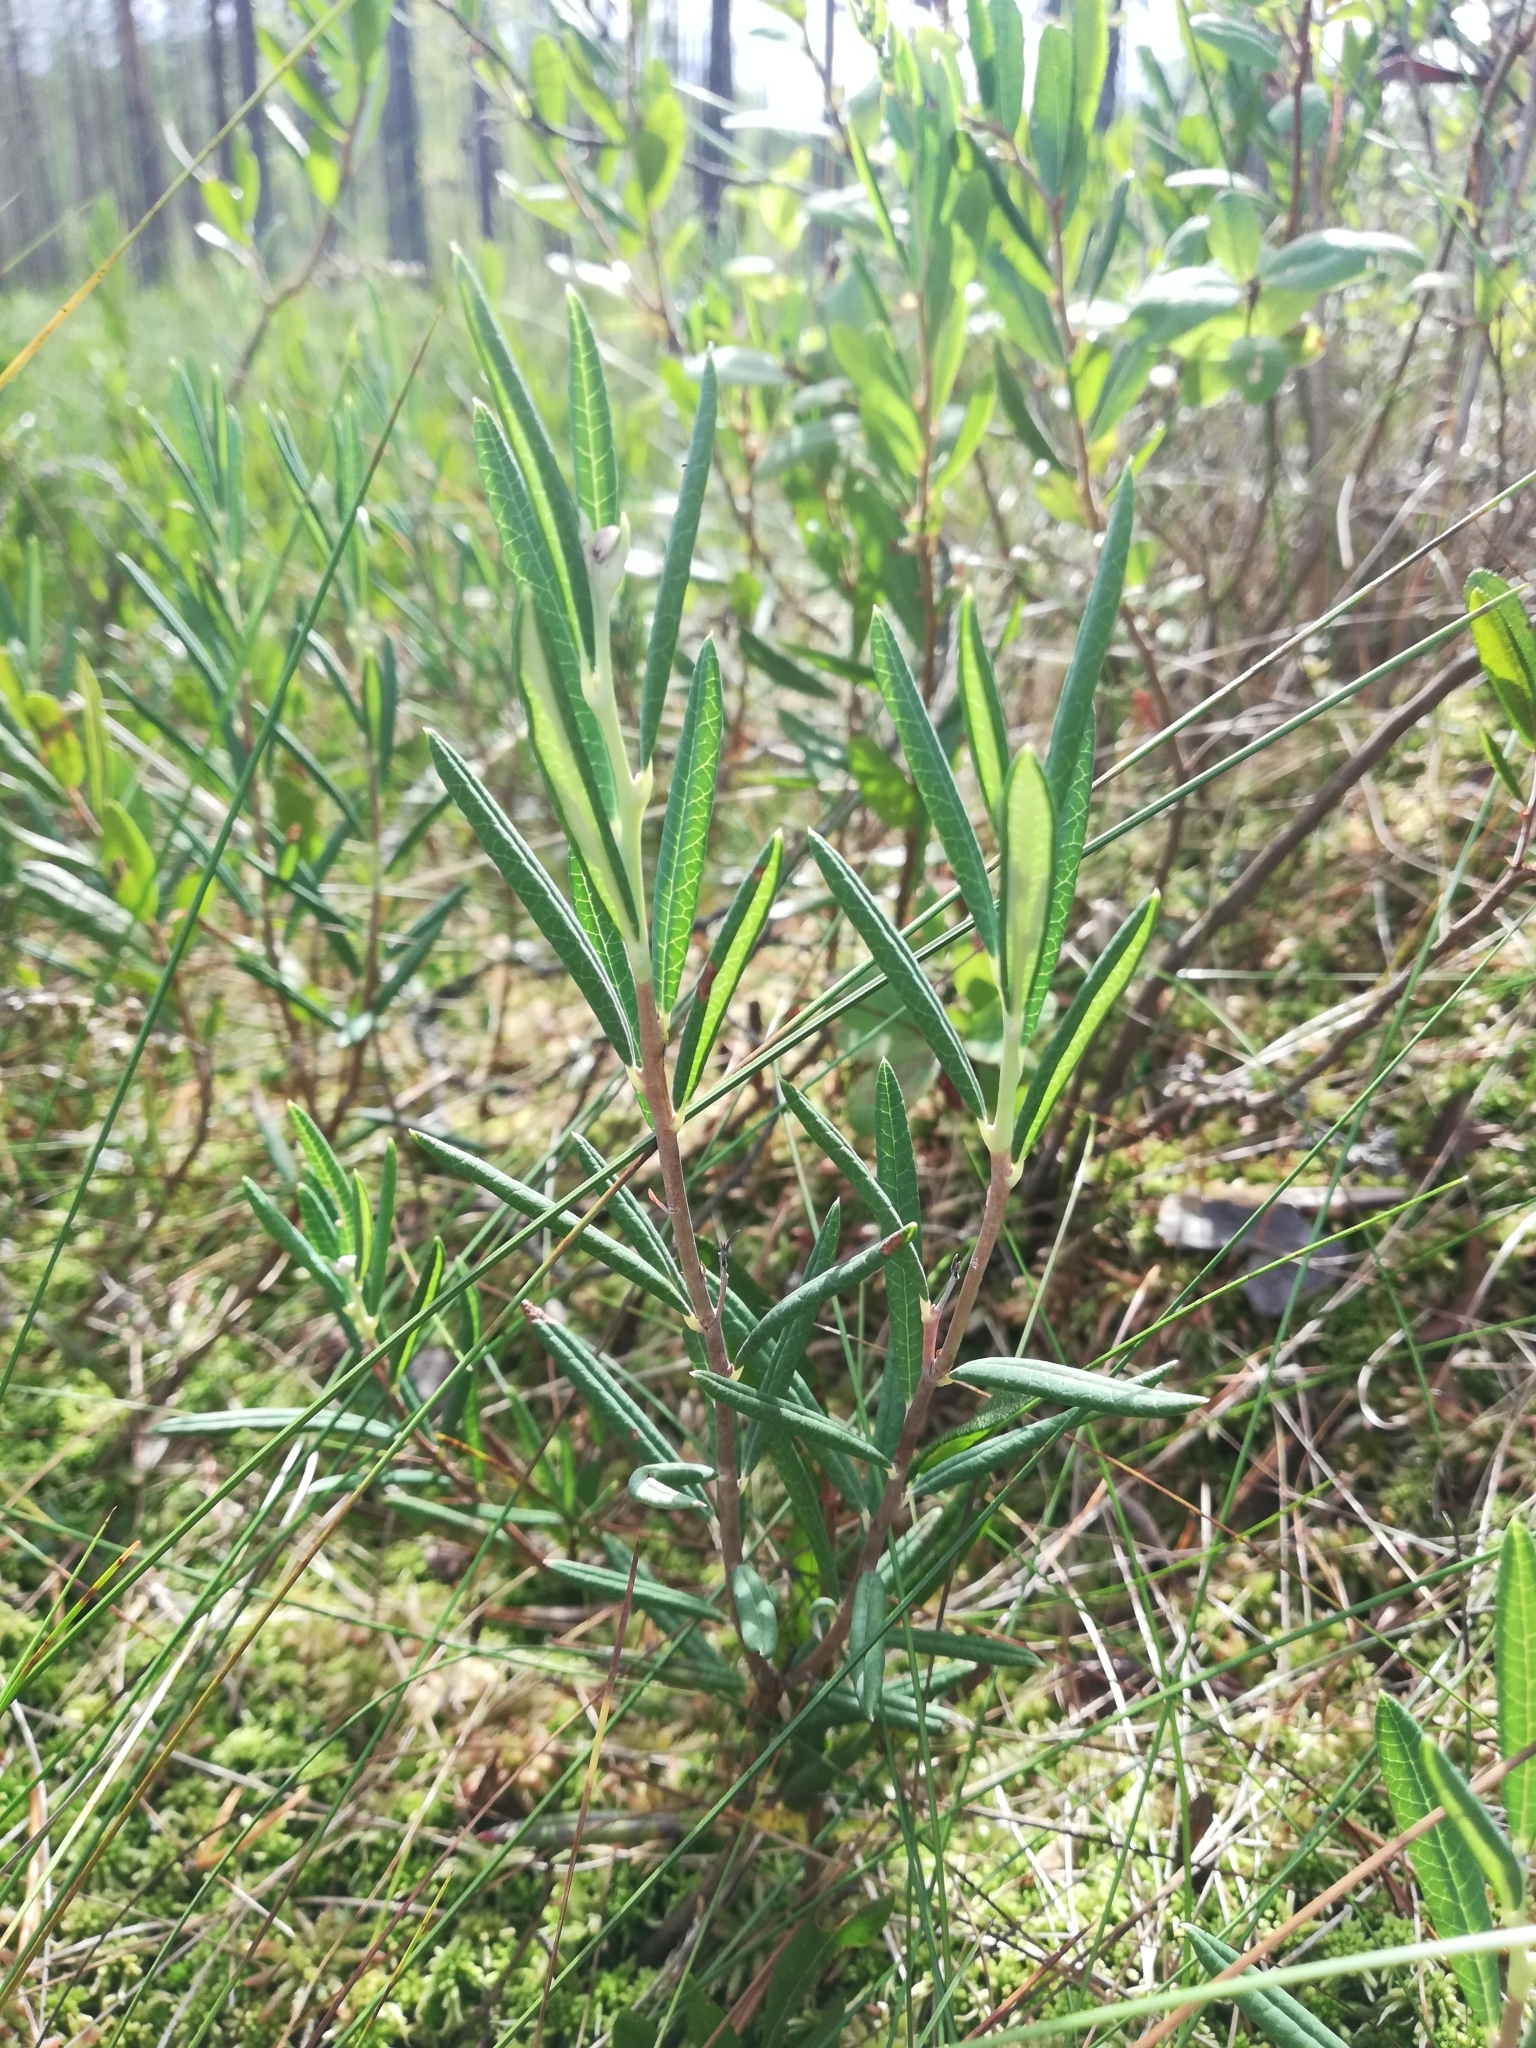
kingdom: Plantae
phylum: Tracheophyta
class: Magnoliopsida
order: Ericales
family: Ericaceae
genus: Andromeda
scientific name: Andromeda polifolia
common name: Bog-rosemary
